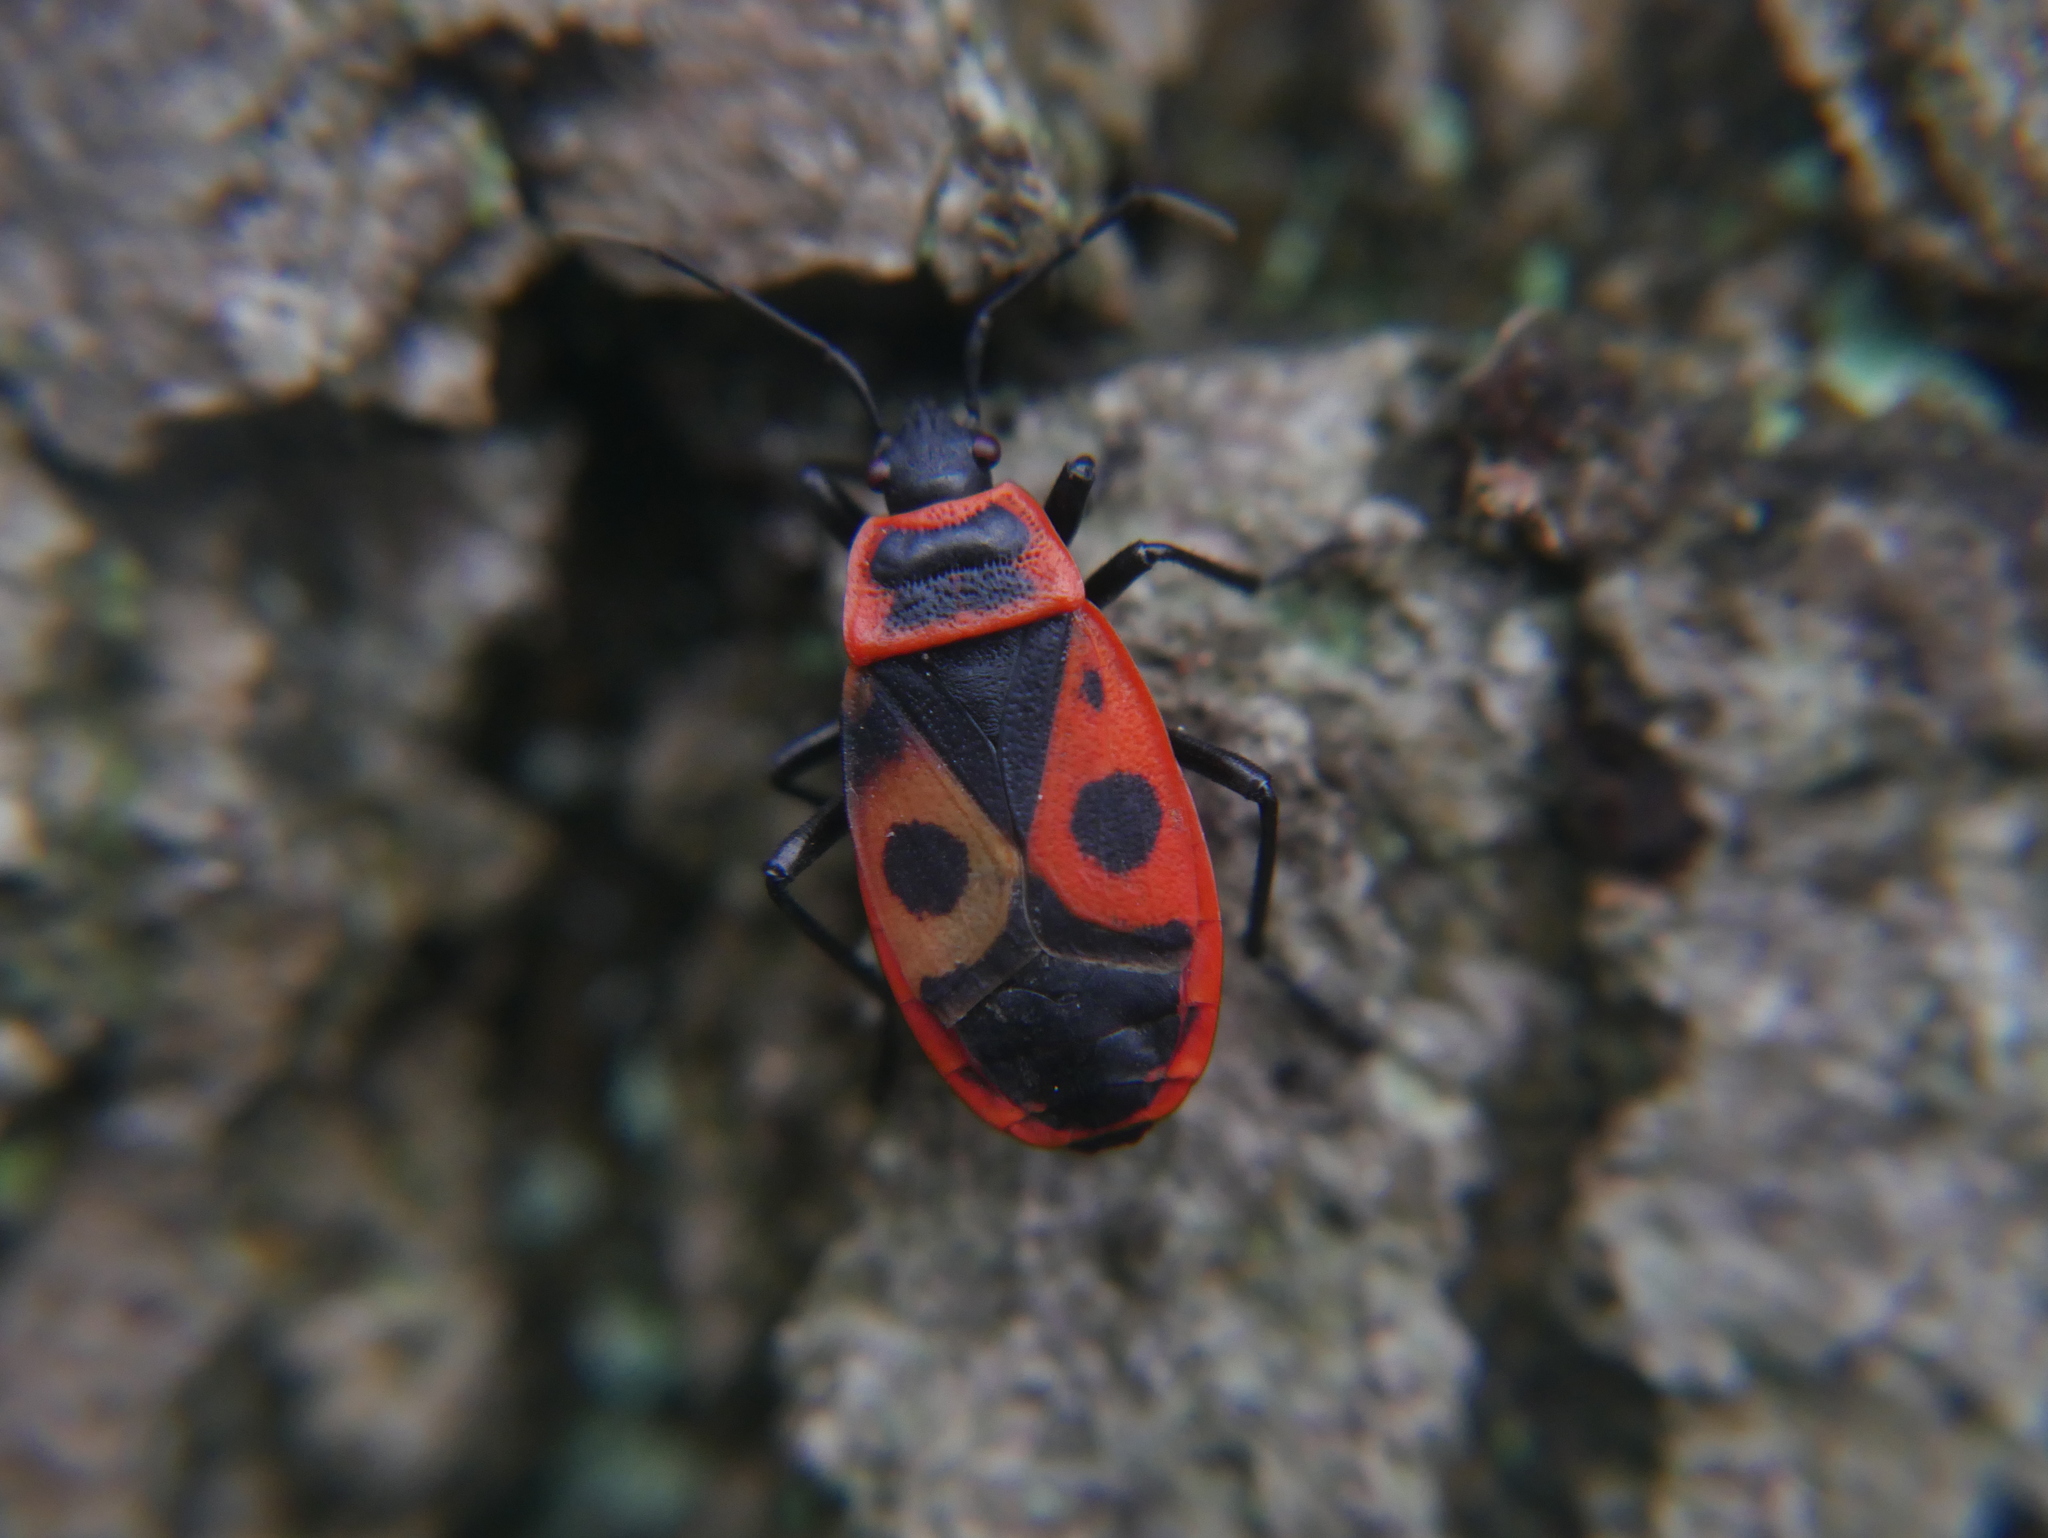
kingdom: Animalia
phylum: Arthropoda
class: Insecta
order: Hemiptera
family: Pyrrhocoridae
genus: Pyrrhocoris
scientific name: Pyrrhocoris apterus
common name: Firebug
